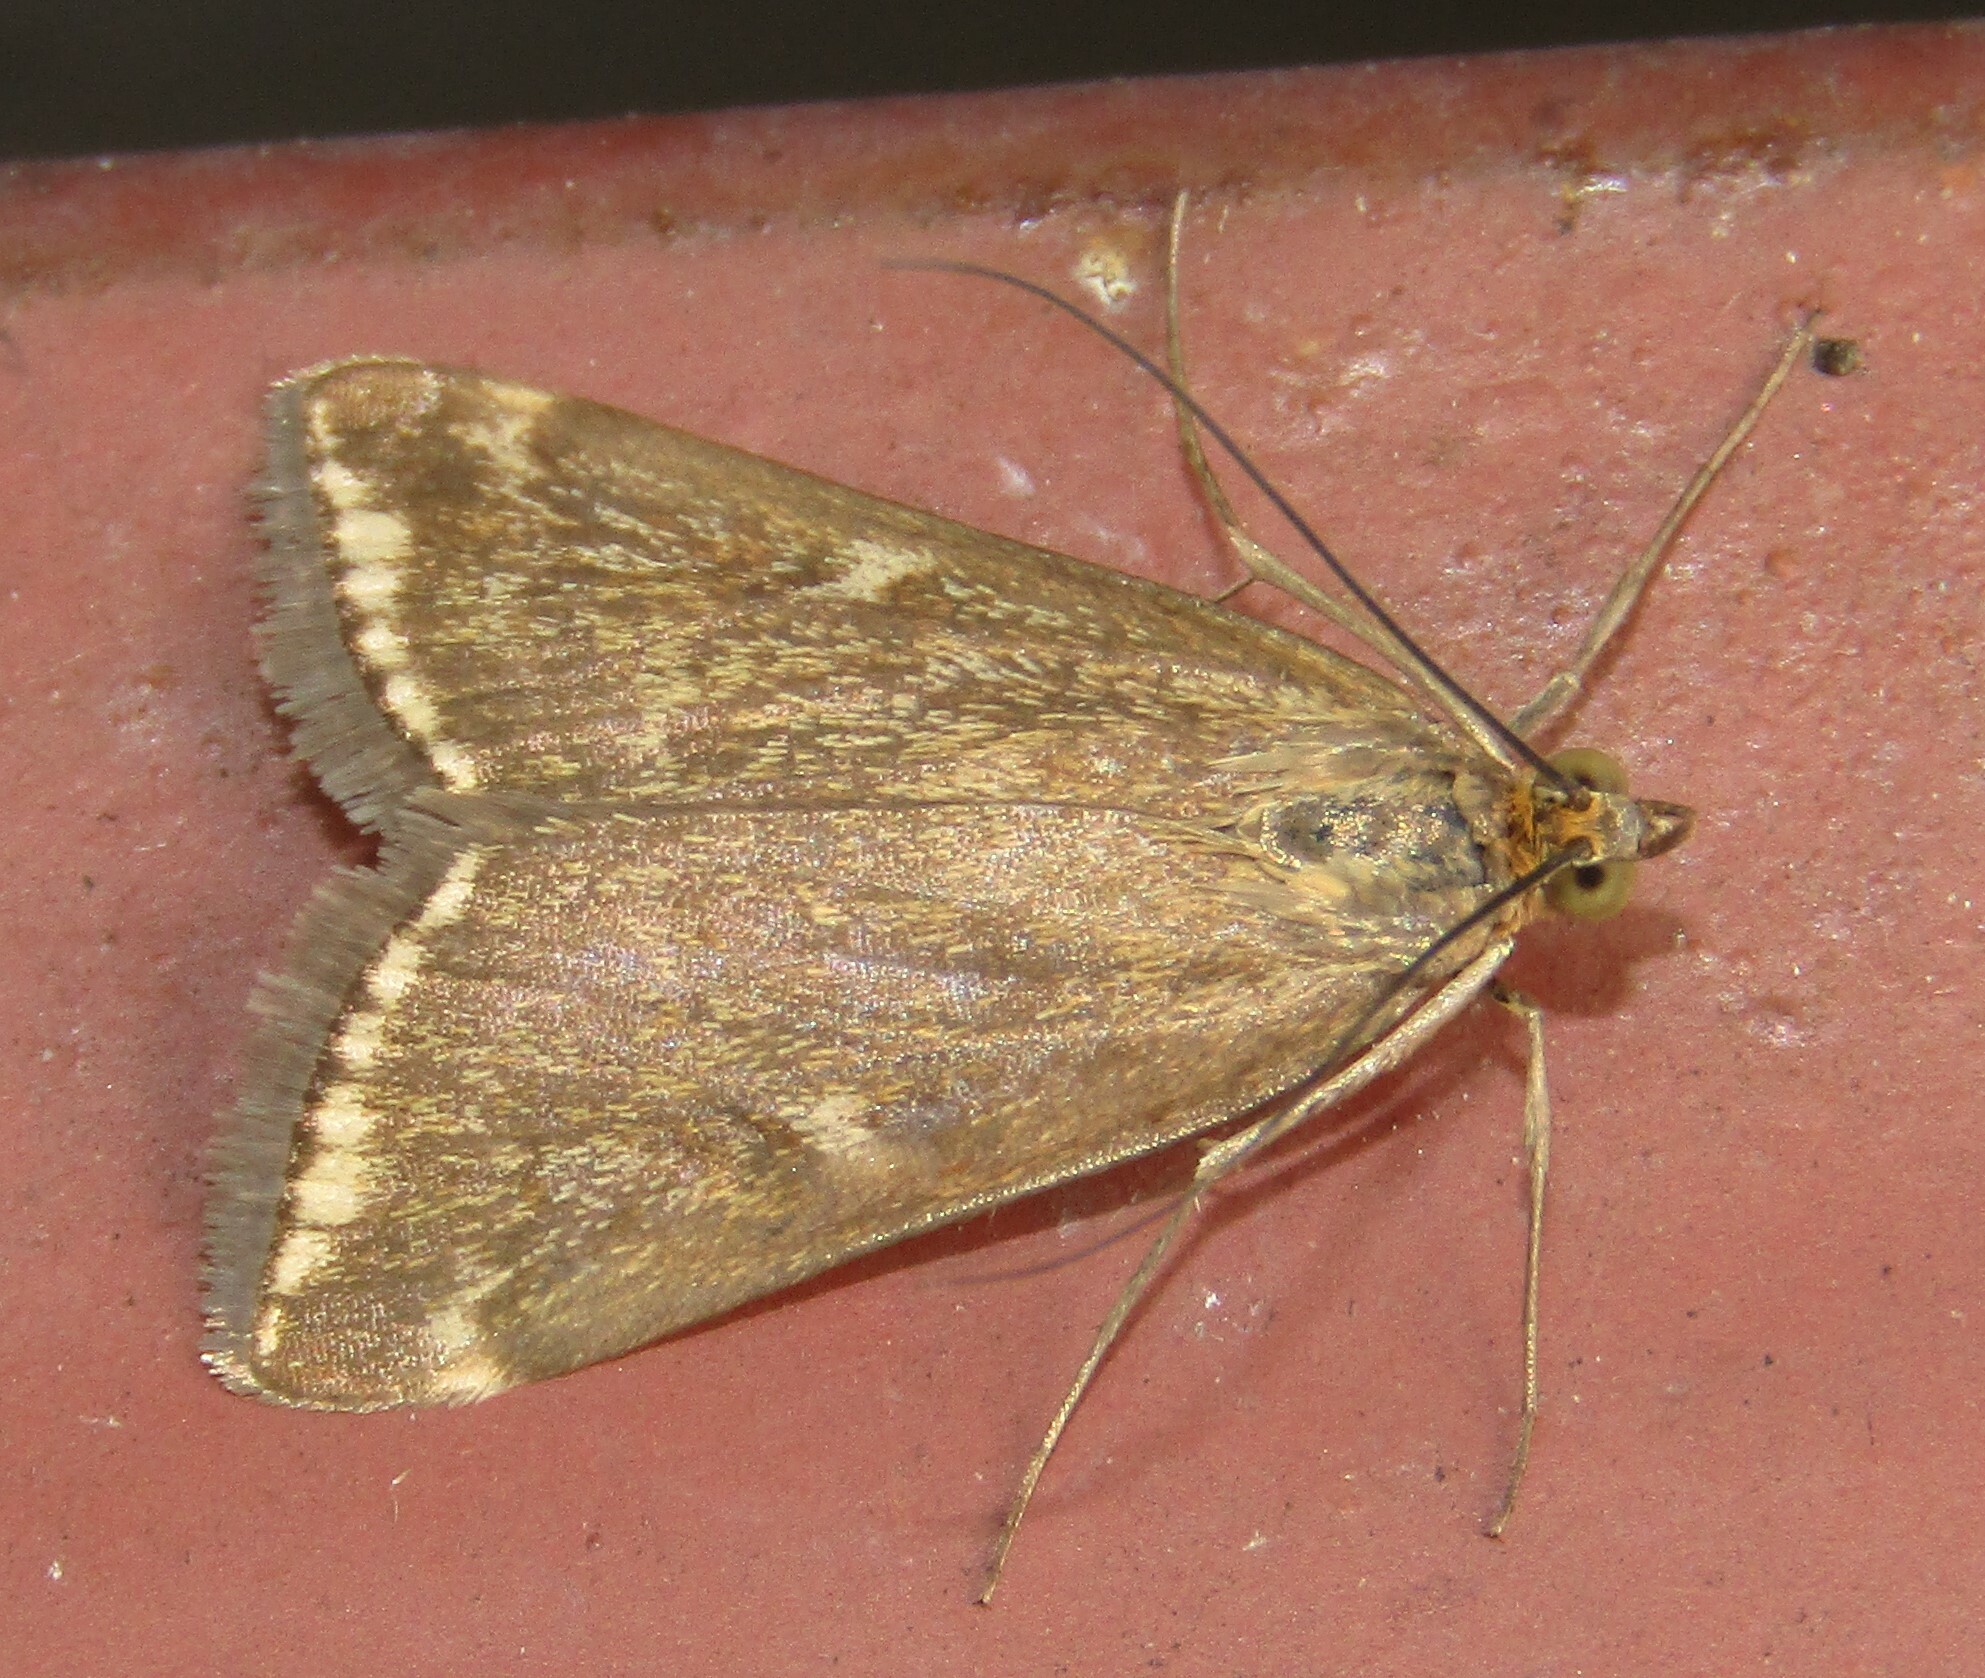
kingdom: Animalia
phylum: Arthropoda
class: Insecta
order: Lepidoptera
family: Crambidae
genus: Loxostege
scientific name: Loxostege sticticalis
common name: Crambid moth
